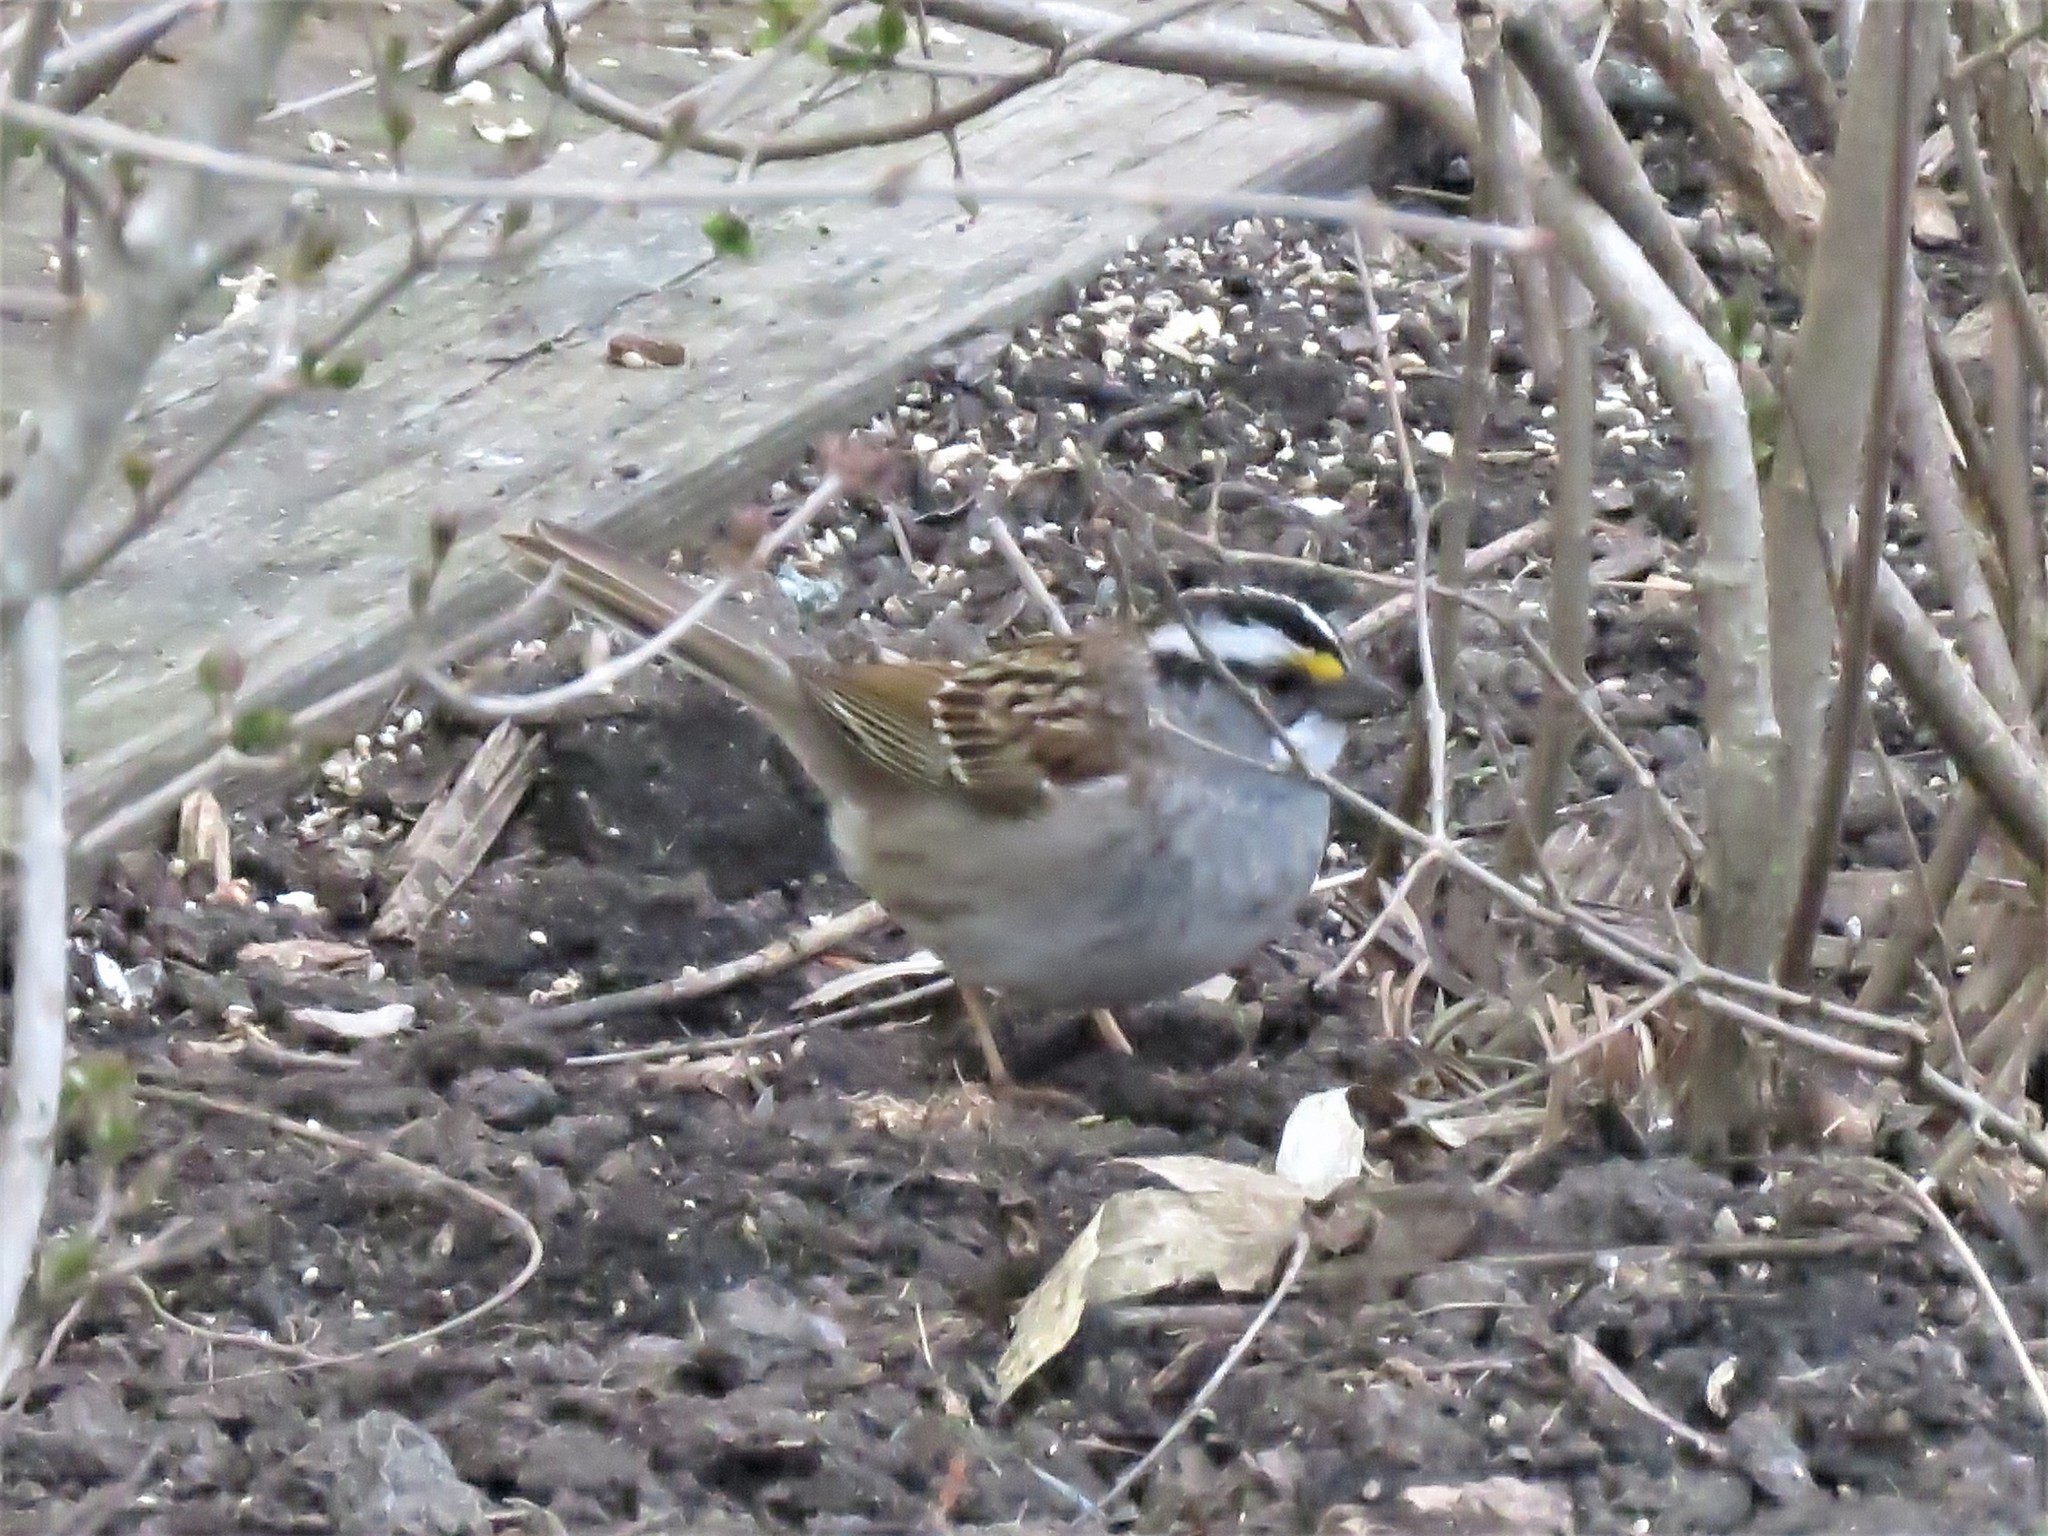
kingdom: Animalia
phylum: Chordata
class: Aves
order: Passeriformes
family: Passerellidae
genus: Zonotrichia
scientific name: Zonotrichia albicollis
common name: White-throated sparrow
